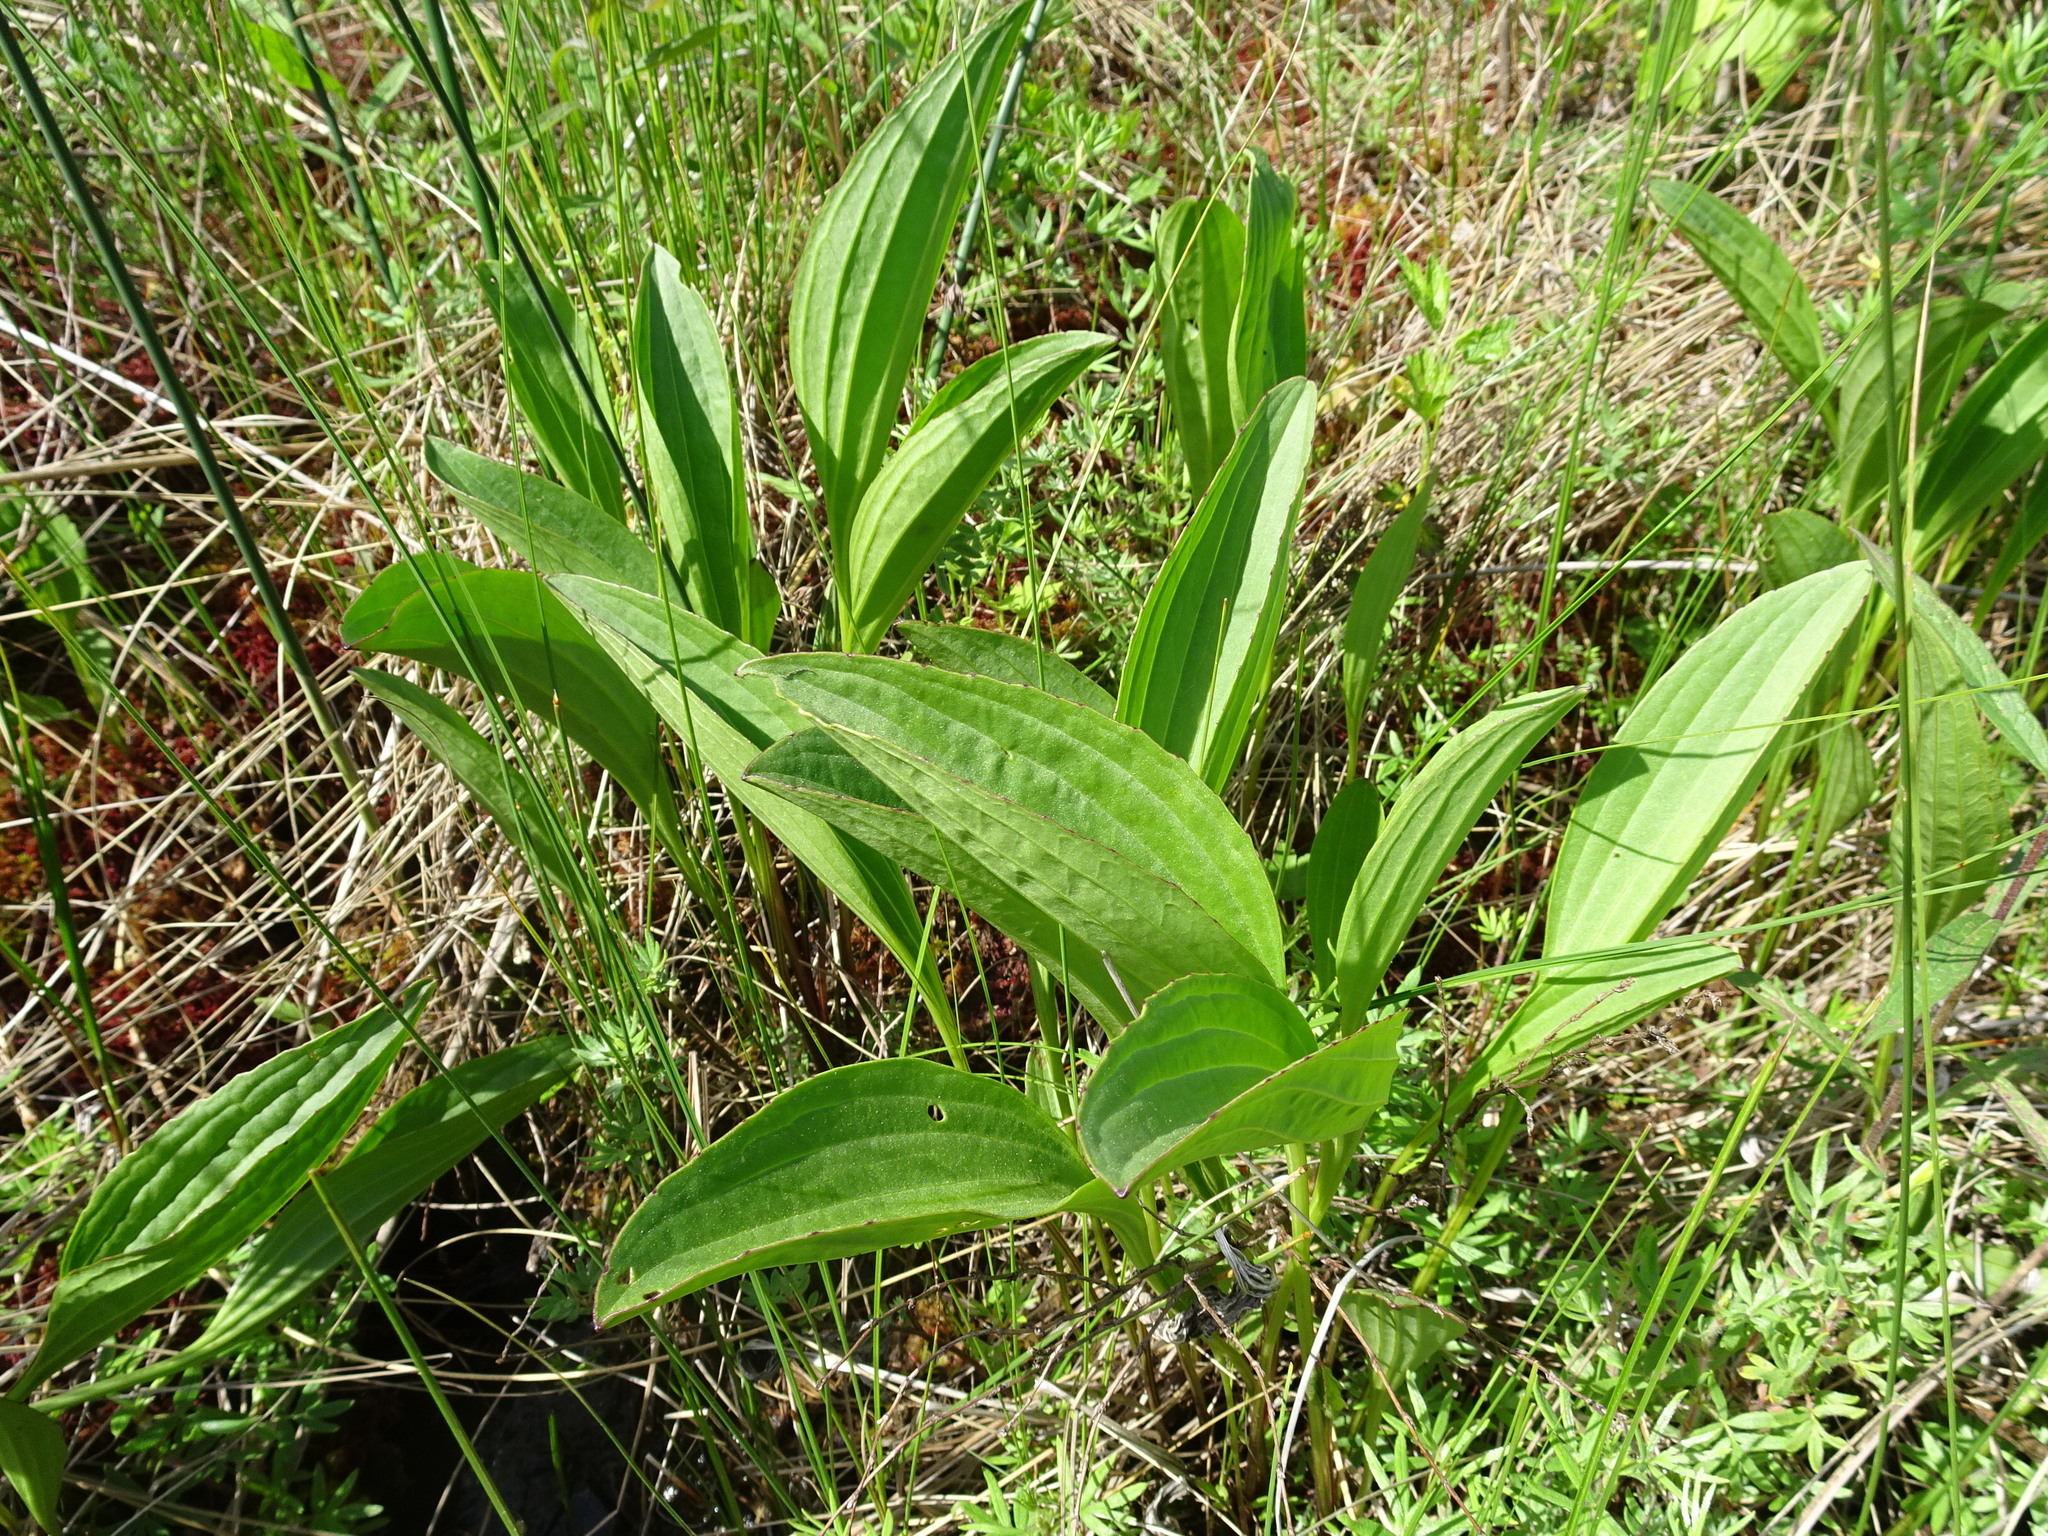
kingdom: Plantae
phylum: Tracheophyta
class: Magnoliopsida
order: Asterales
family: Asteraceae
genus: Arnoglossum
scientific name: Arnoglossum plantagineum
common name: Groove-stemmed indian-plantain
